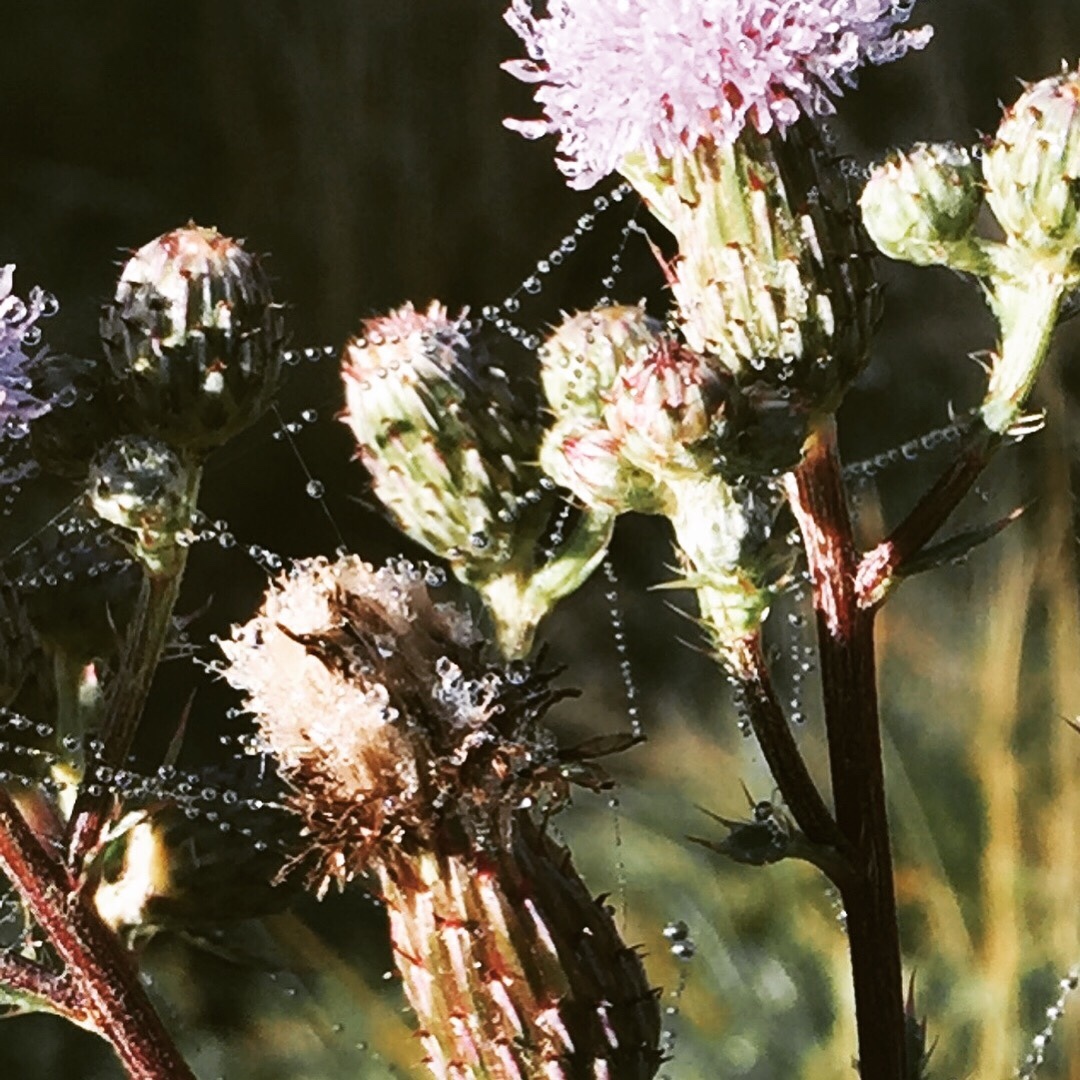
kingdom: Plantae
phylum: Tracheophyta
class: Magnoliopsida
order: Asterales
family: Asteraceae
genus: Cirsium
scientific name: Cirsium arvense
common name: Creeping thistle
